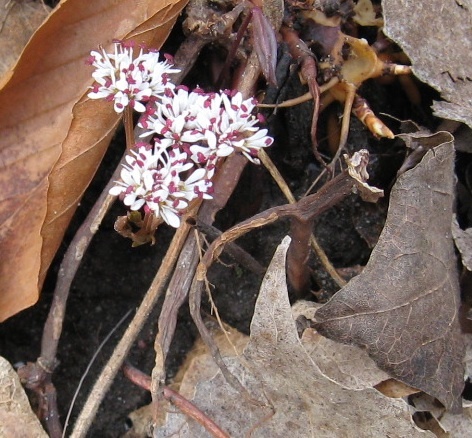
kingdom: Plantae
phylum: Tracheophyta
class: Magnoliopsida
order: Apiales
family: Apiaceae
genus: Erigenia
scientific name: Erigenia bulbosa
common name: Pepper-and-salt
